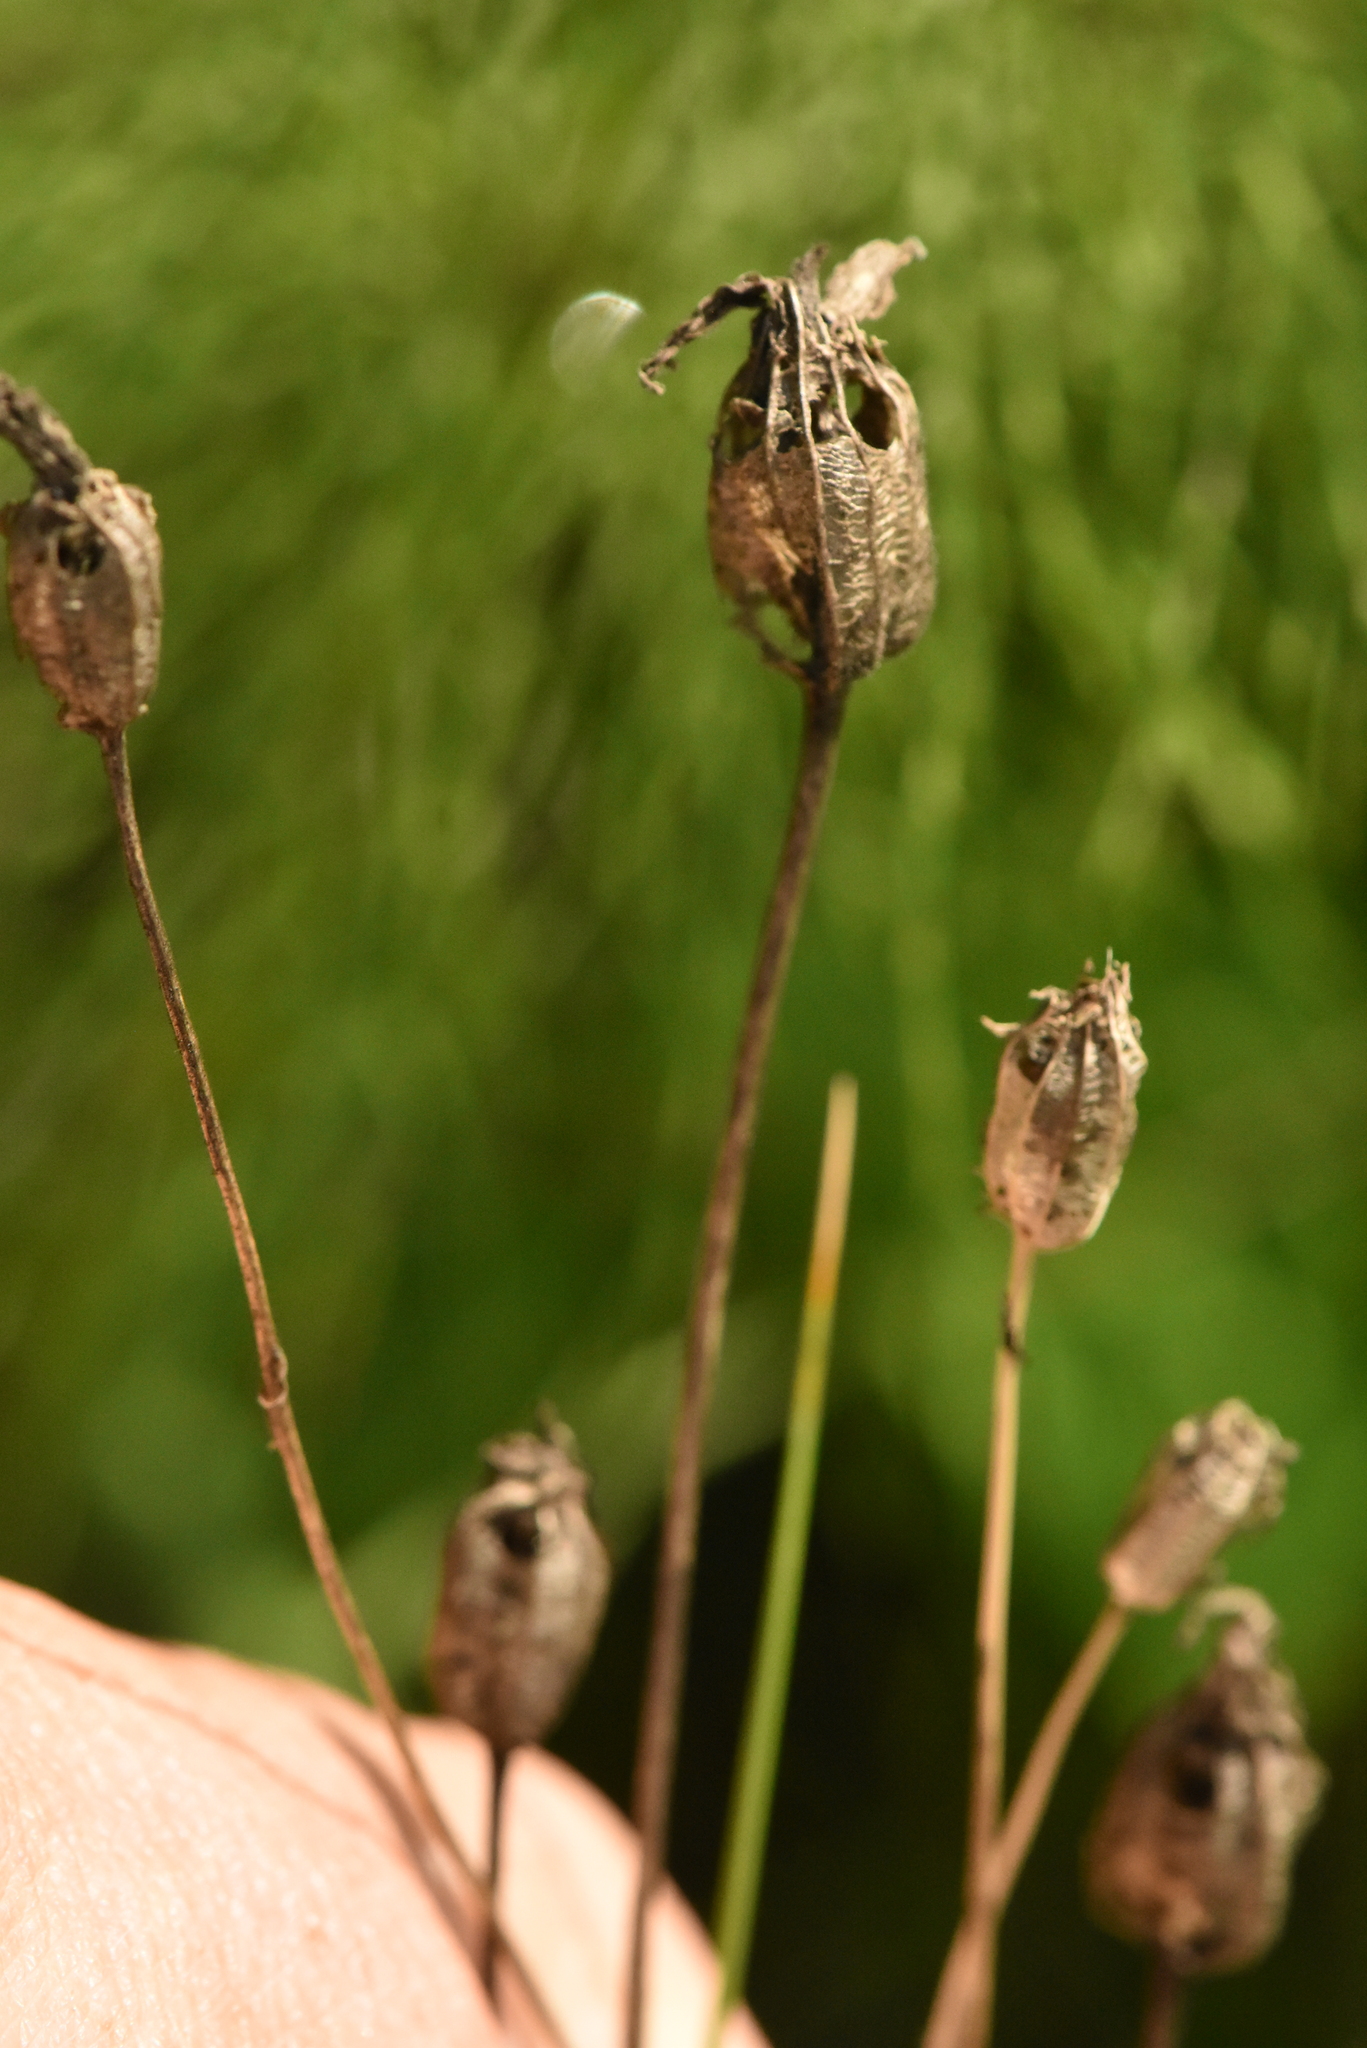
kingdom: Plantae
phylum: Tracheophyta
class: Magnoliopsida
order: Asterales
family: Campanulaceae
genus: Campanula
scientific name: Campanula stevenii
